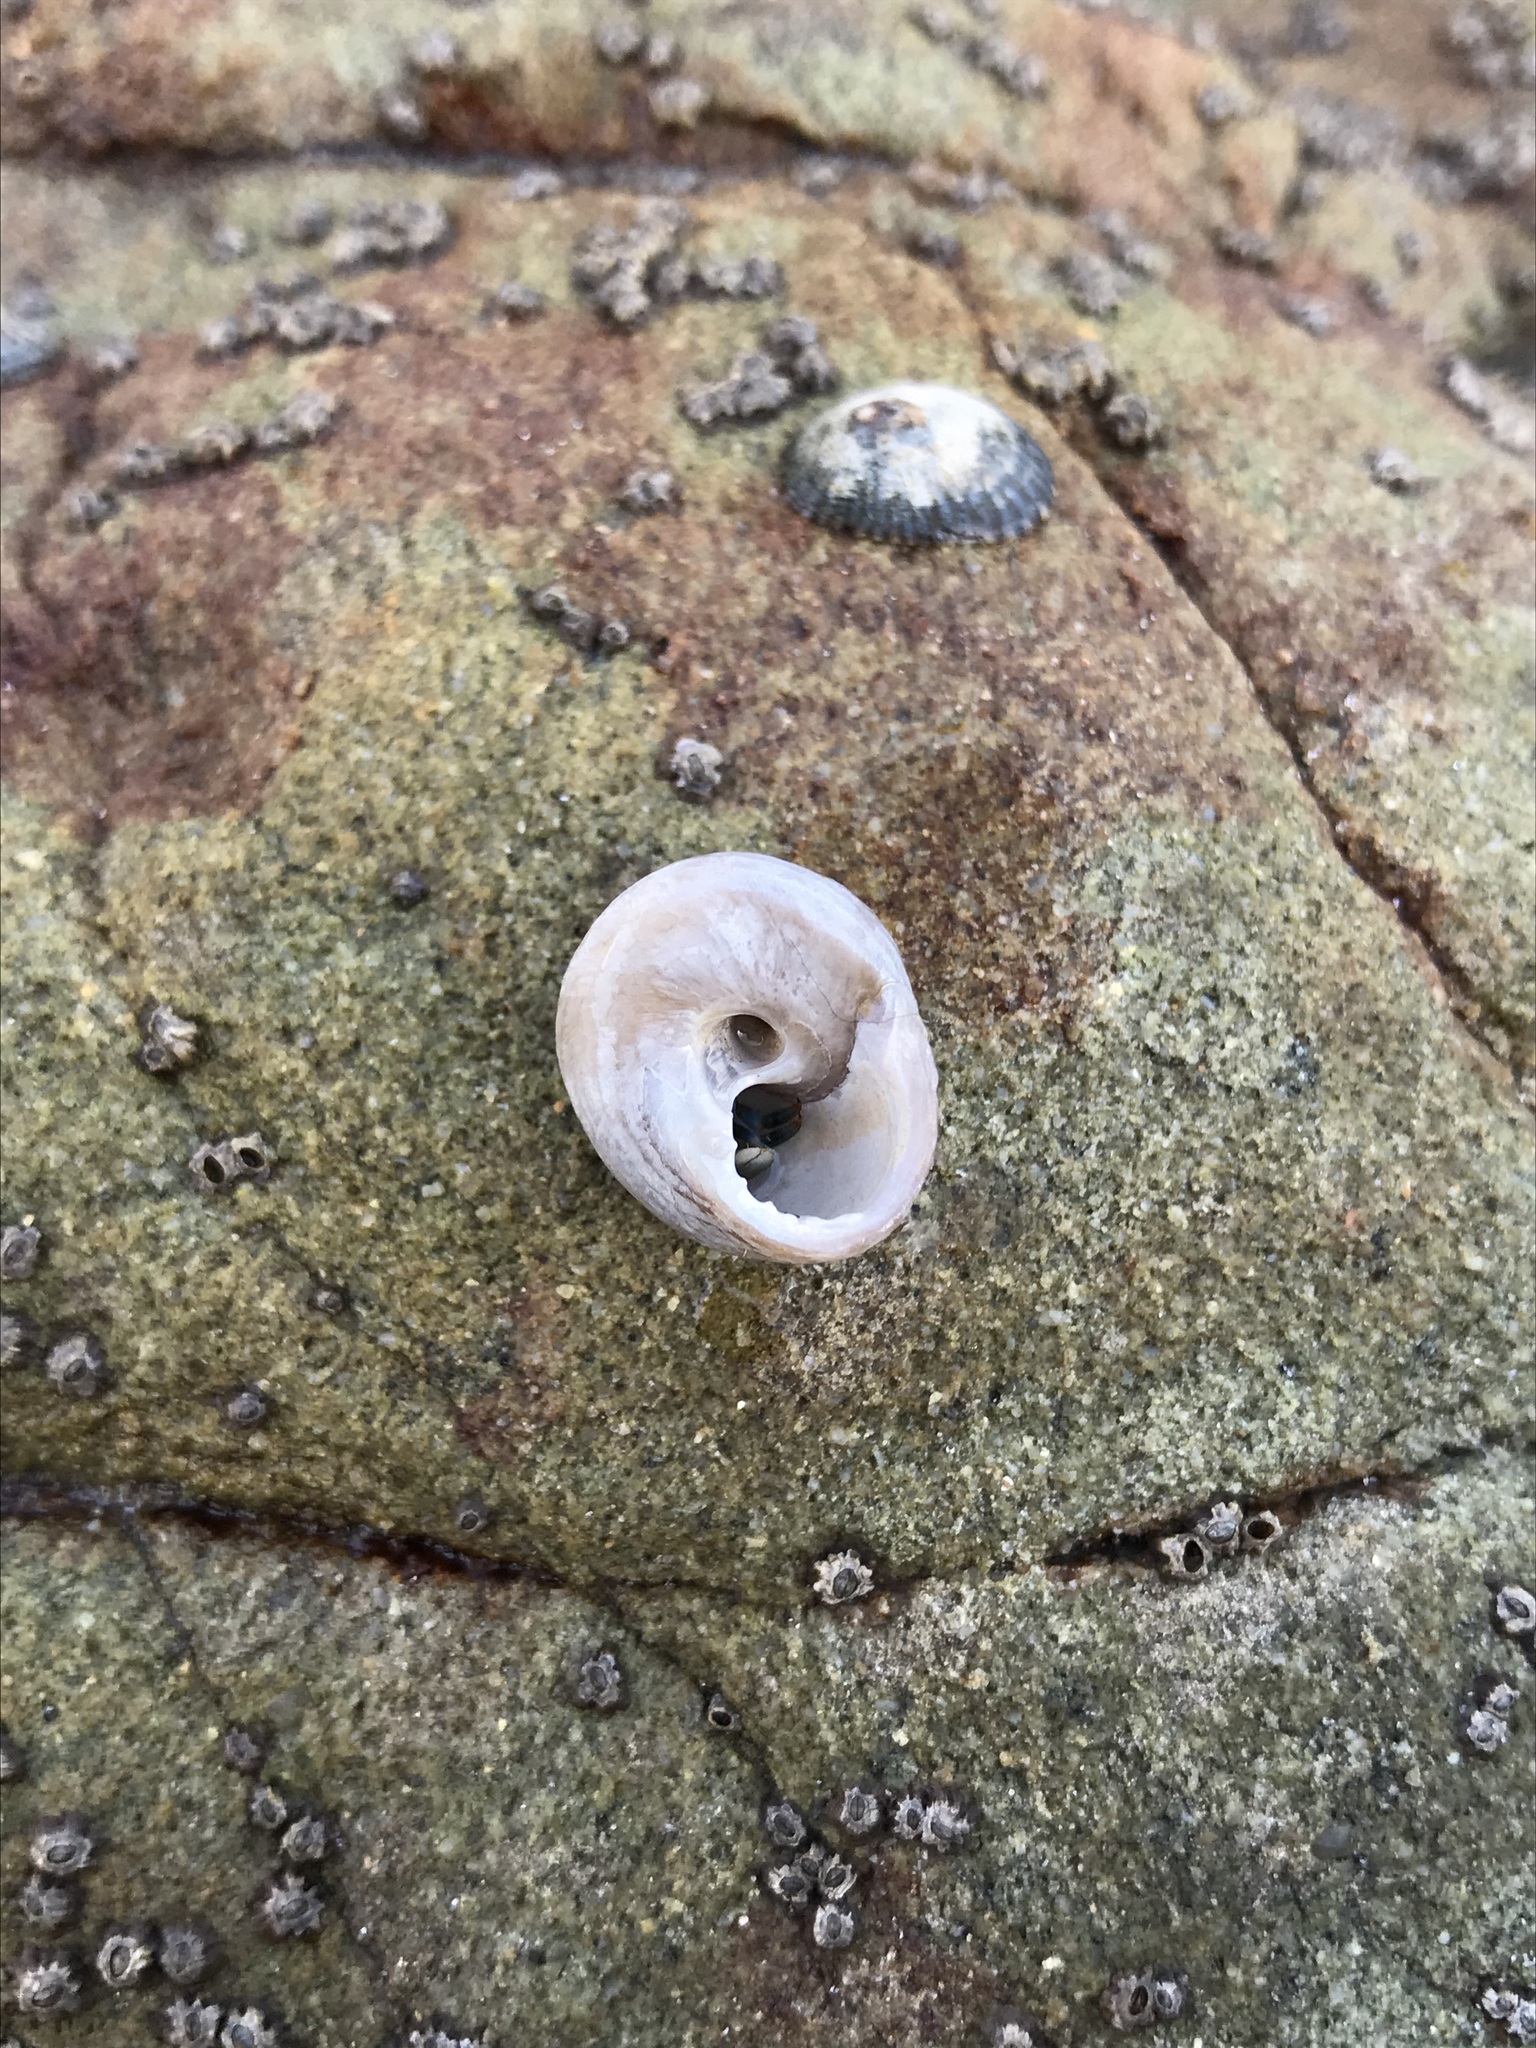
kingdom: Animalia
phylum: Mollusca
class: Gastropoda
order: Trochida
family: Tegulidae
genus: Tegula
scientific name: Tegula eiseni
